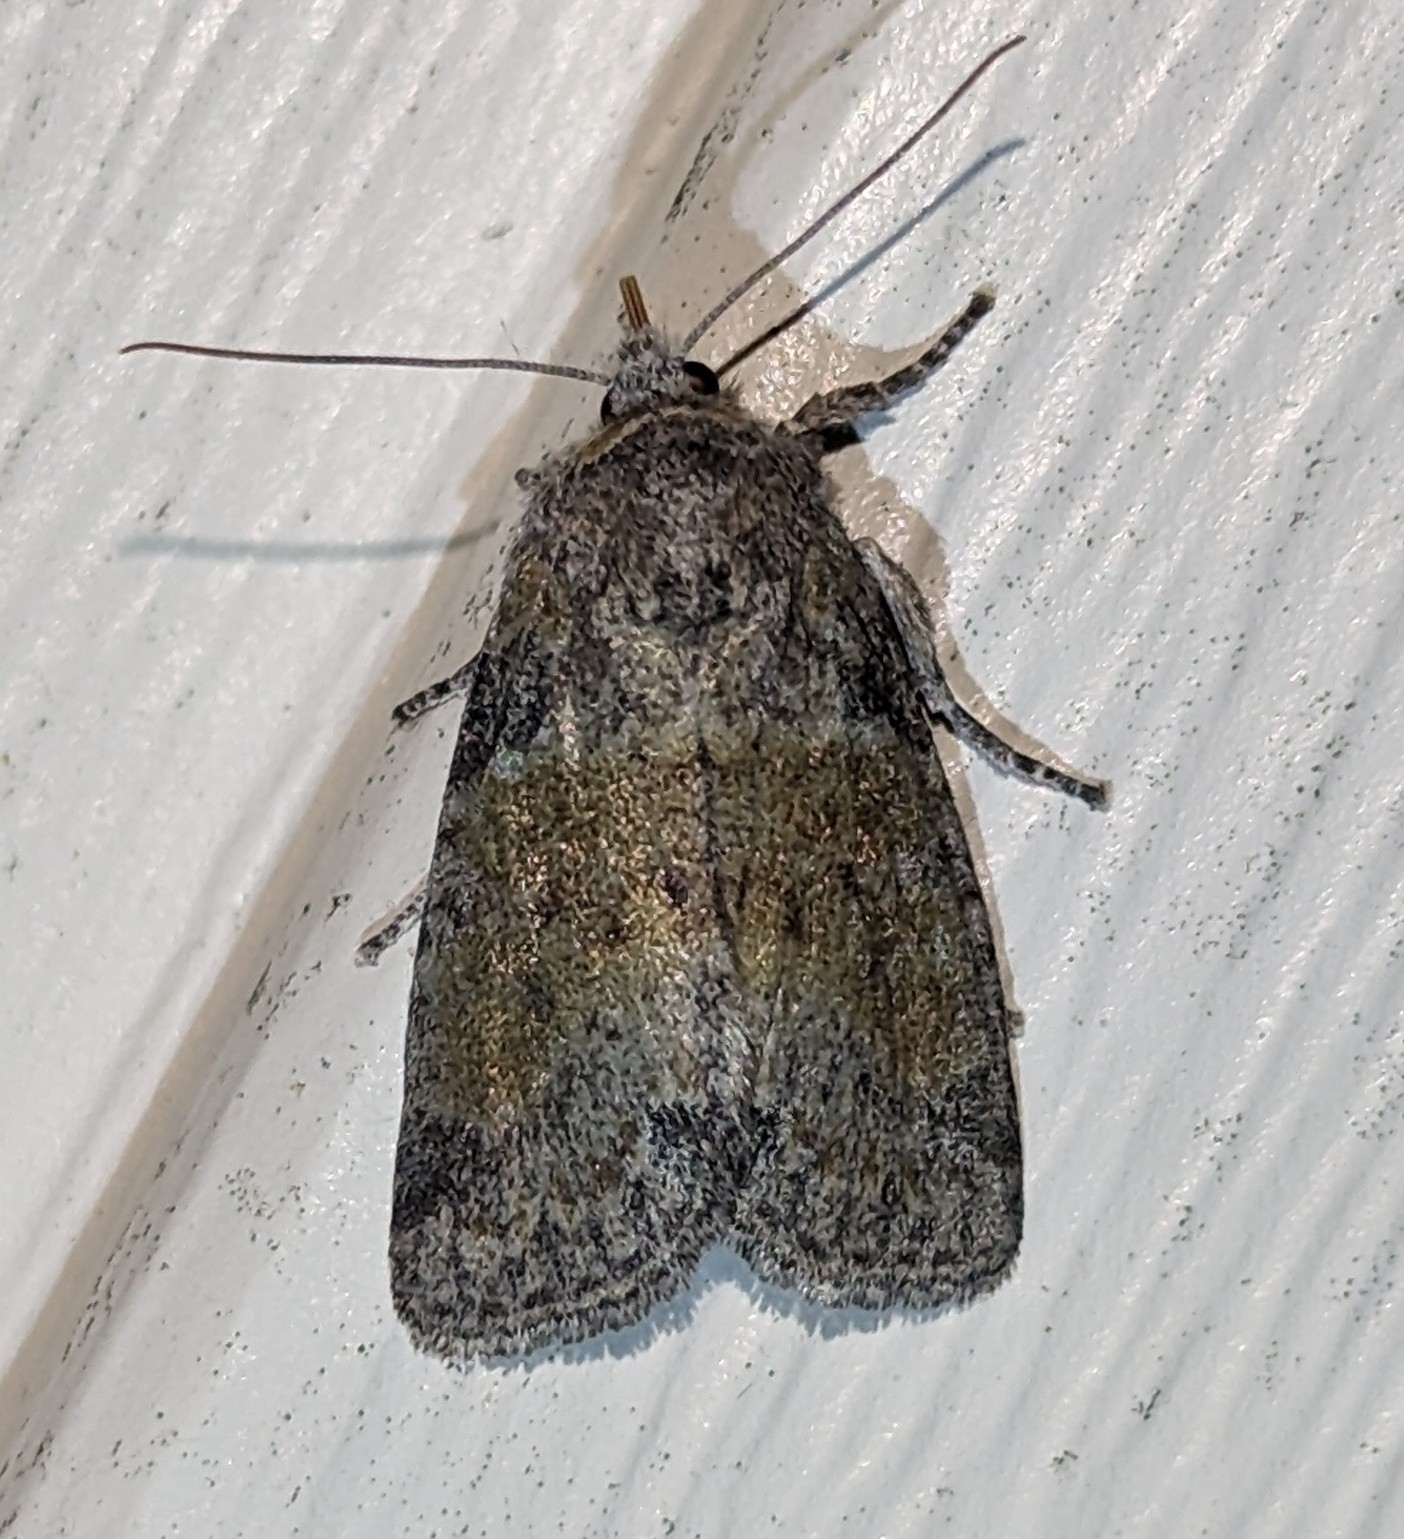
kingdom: Animalia
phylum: Arthropoda
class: Insecta
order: Lepidoptera
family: Noctuidae
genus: Brachylomia
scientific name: Brachylomia populi
